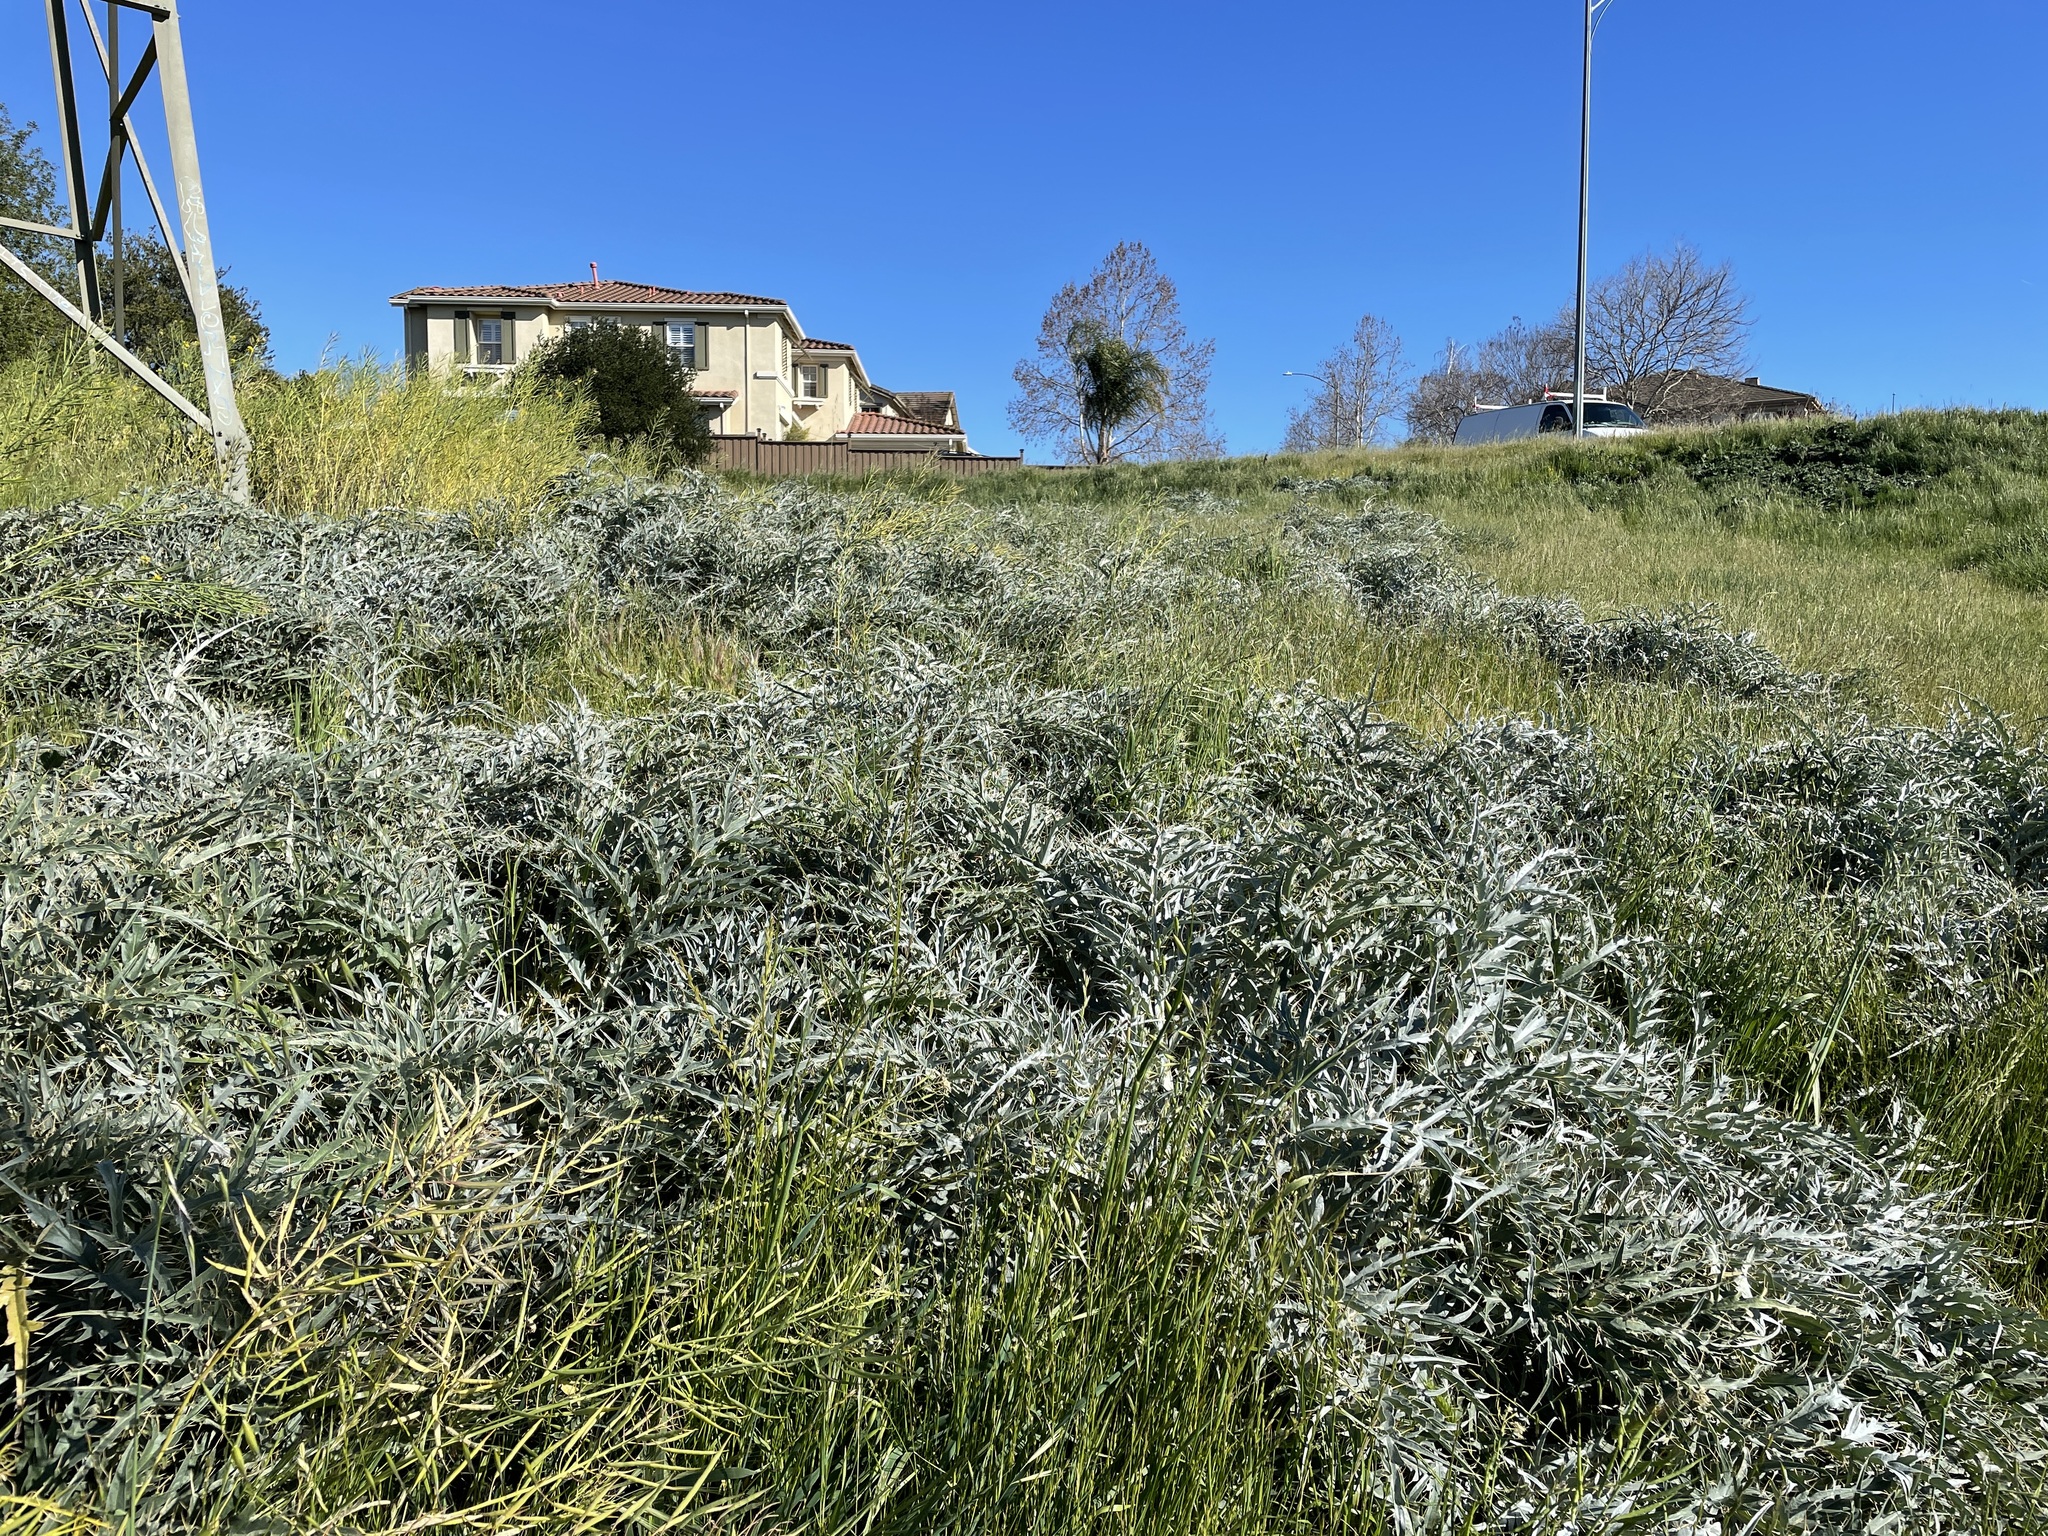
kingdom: Plantae
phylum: Tracheophyta
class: Magnoliopsida
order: Asterales
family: Asteraceae
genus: Cynara
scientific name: Cynara cardunculus
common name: Globe artichoke
